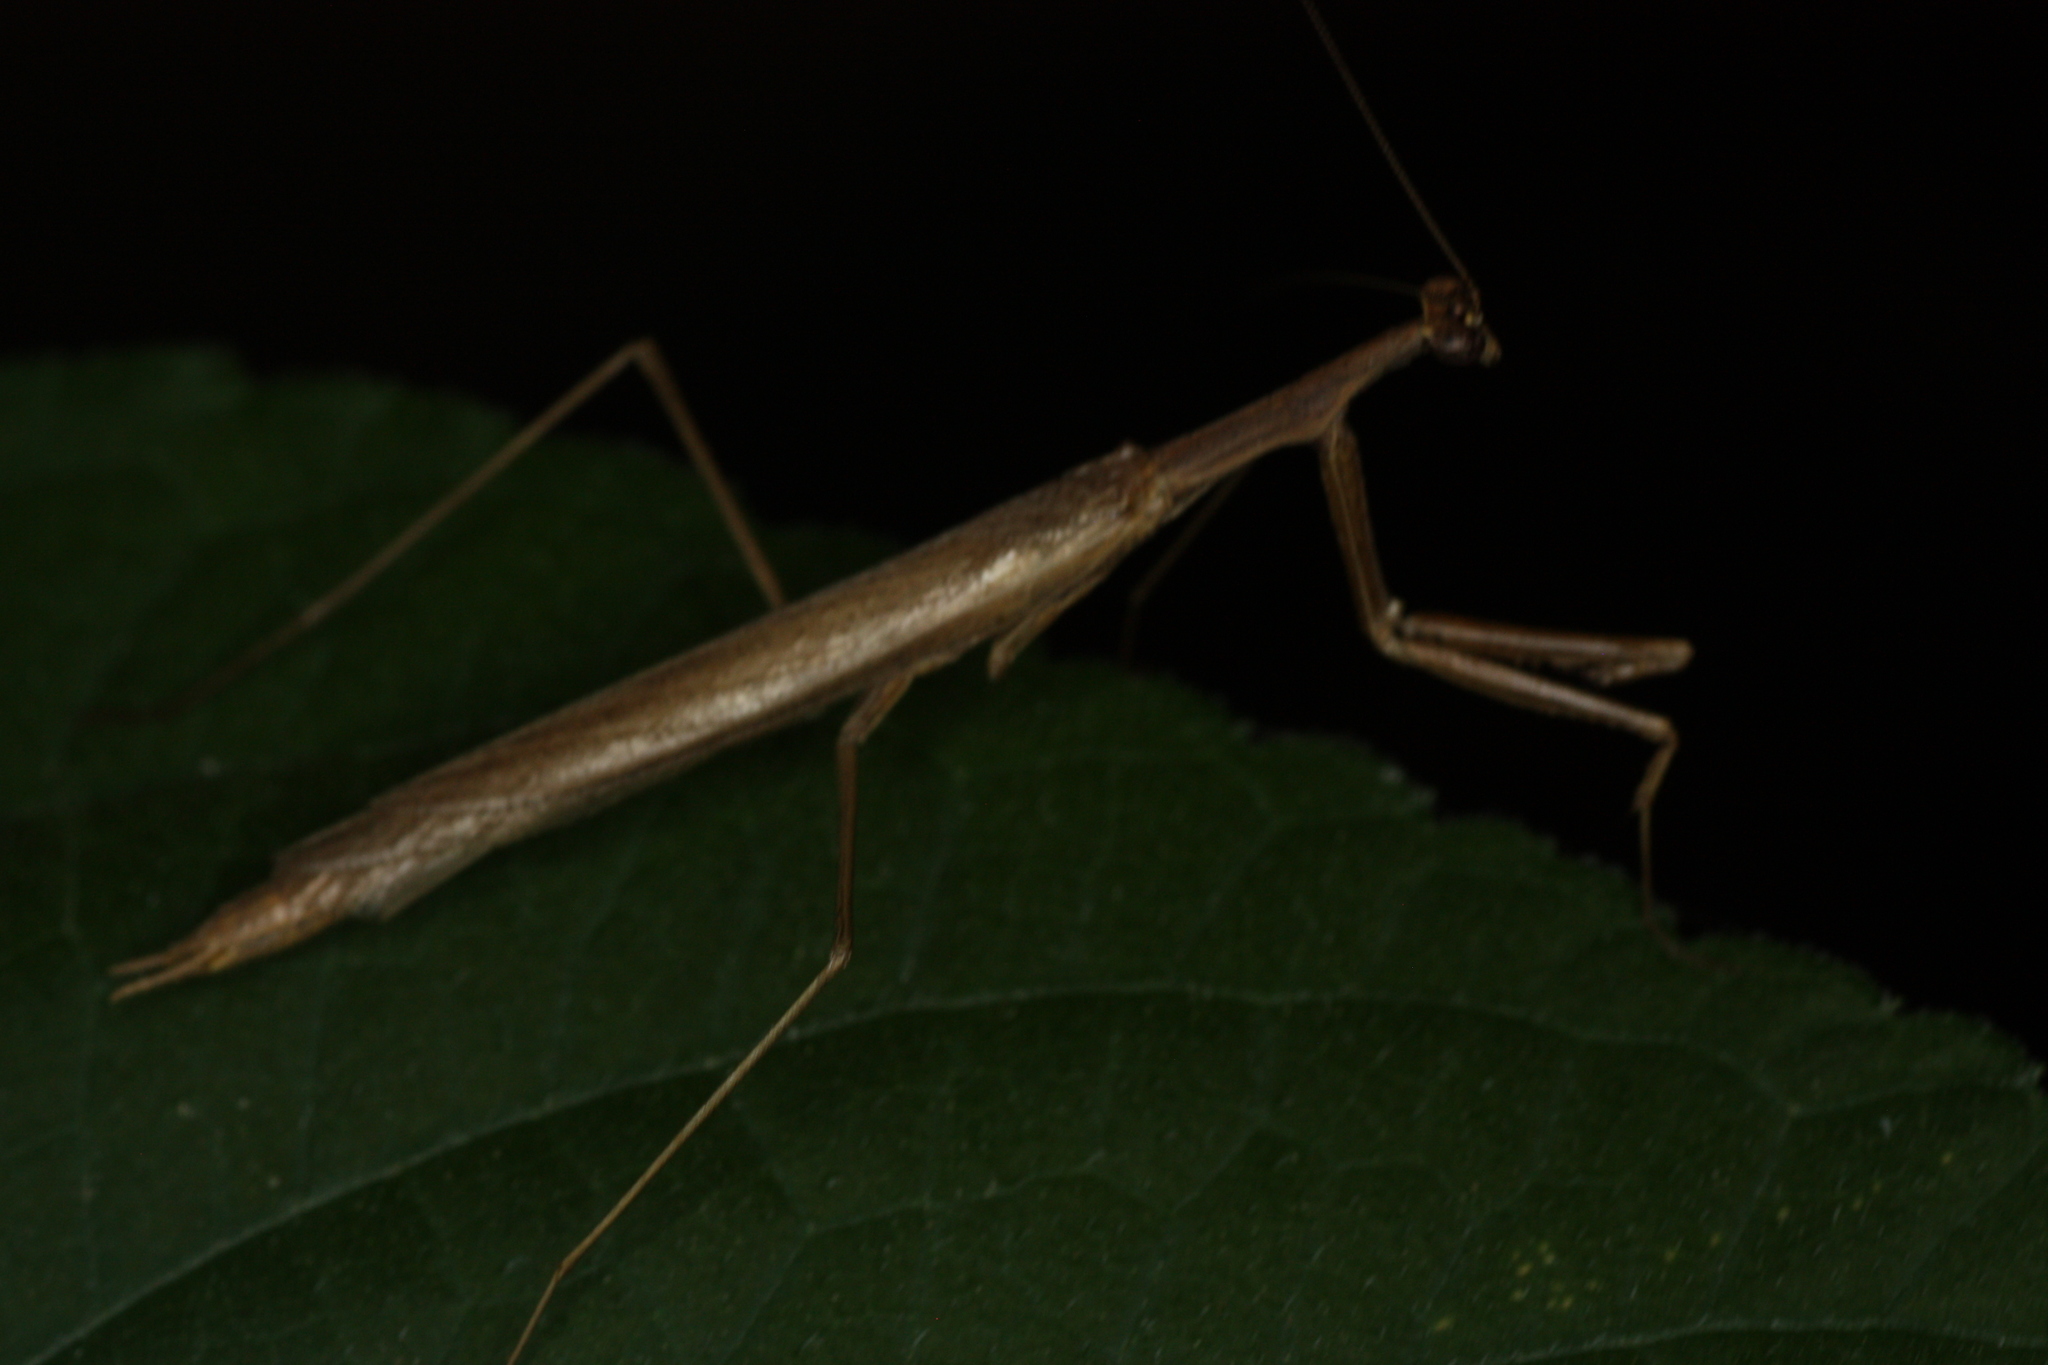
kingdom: Animalia
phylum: Arthropoda
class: Insecta
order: Mantodea
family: Thespidae
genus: Oligonicella
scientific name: Oligonicella scudderi
